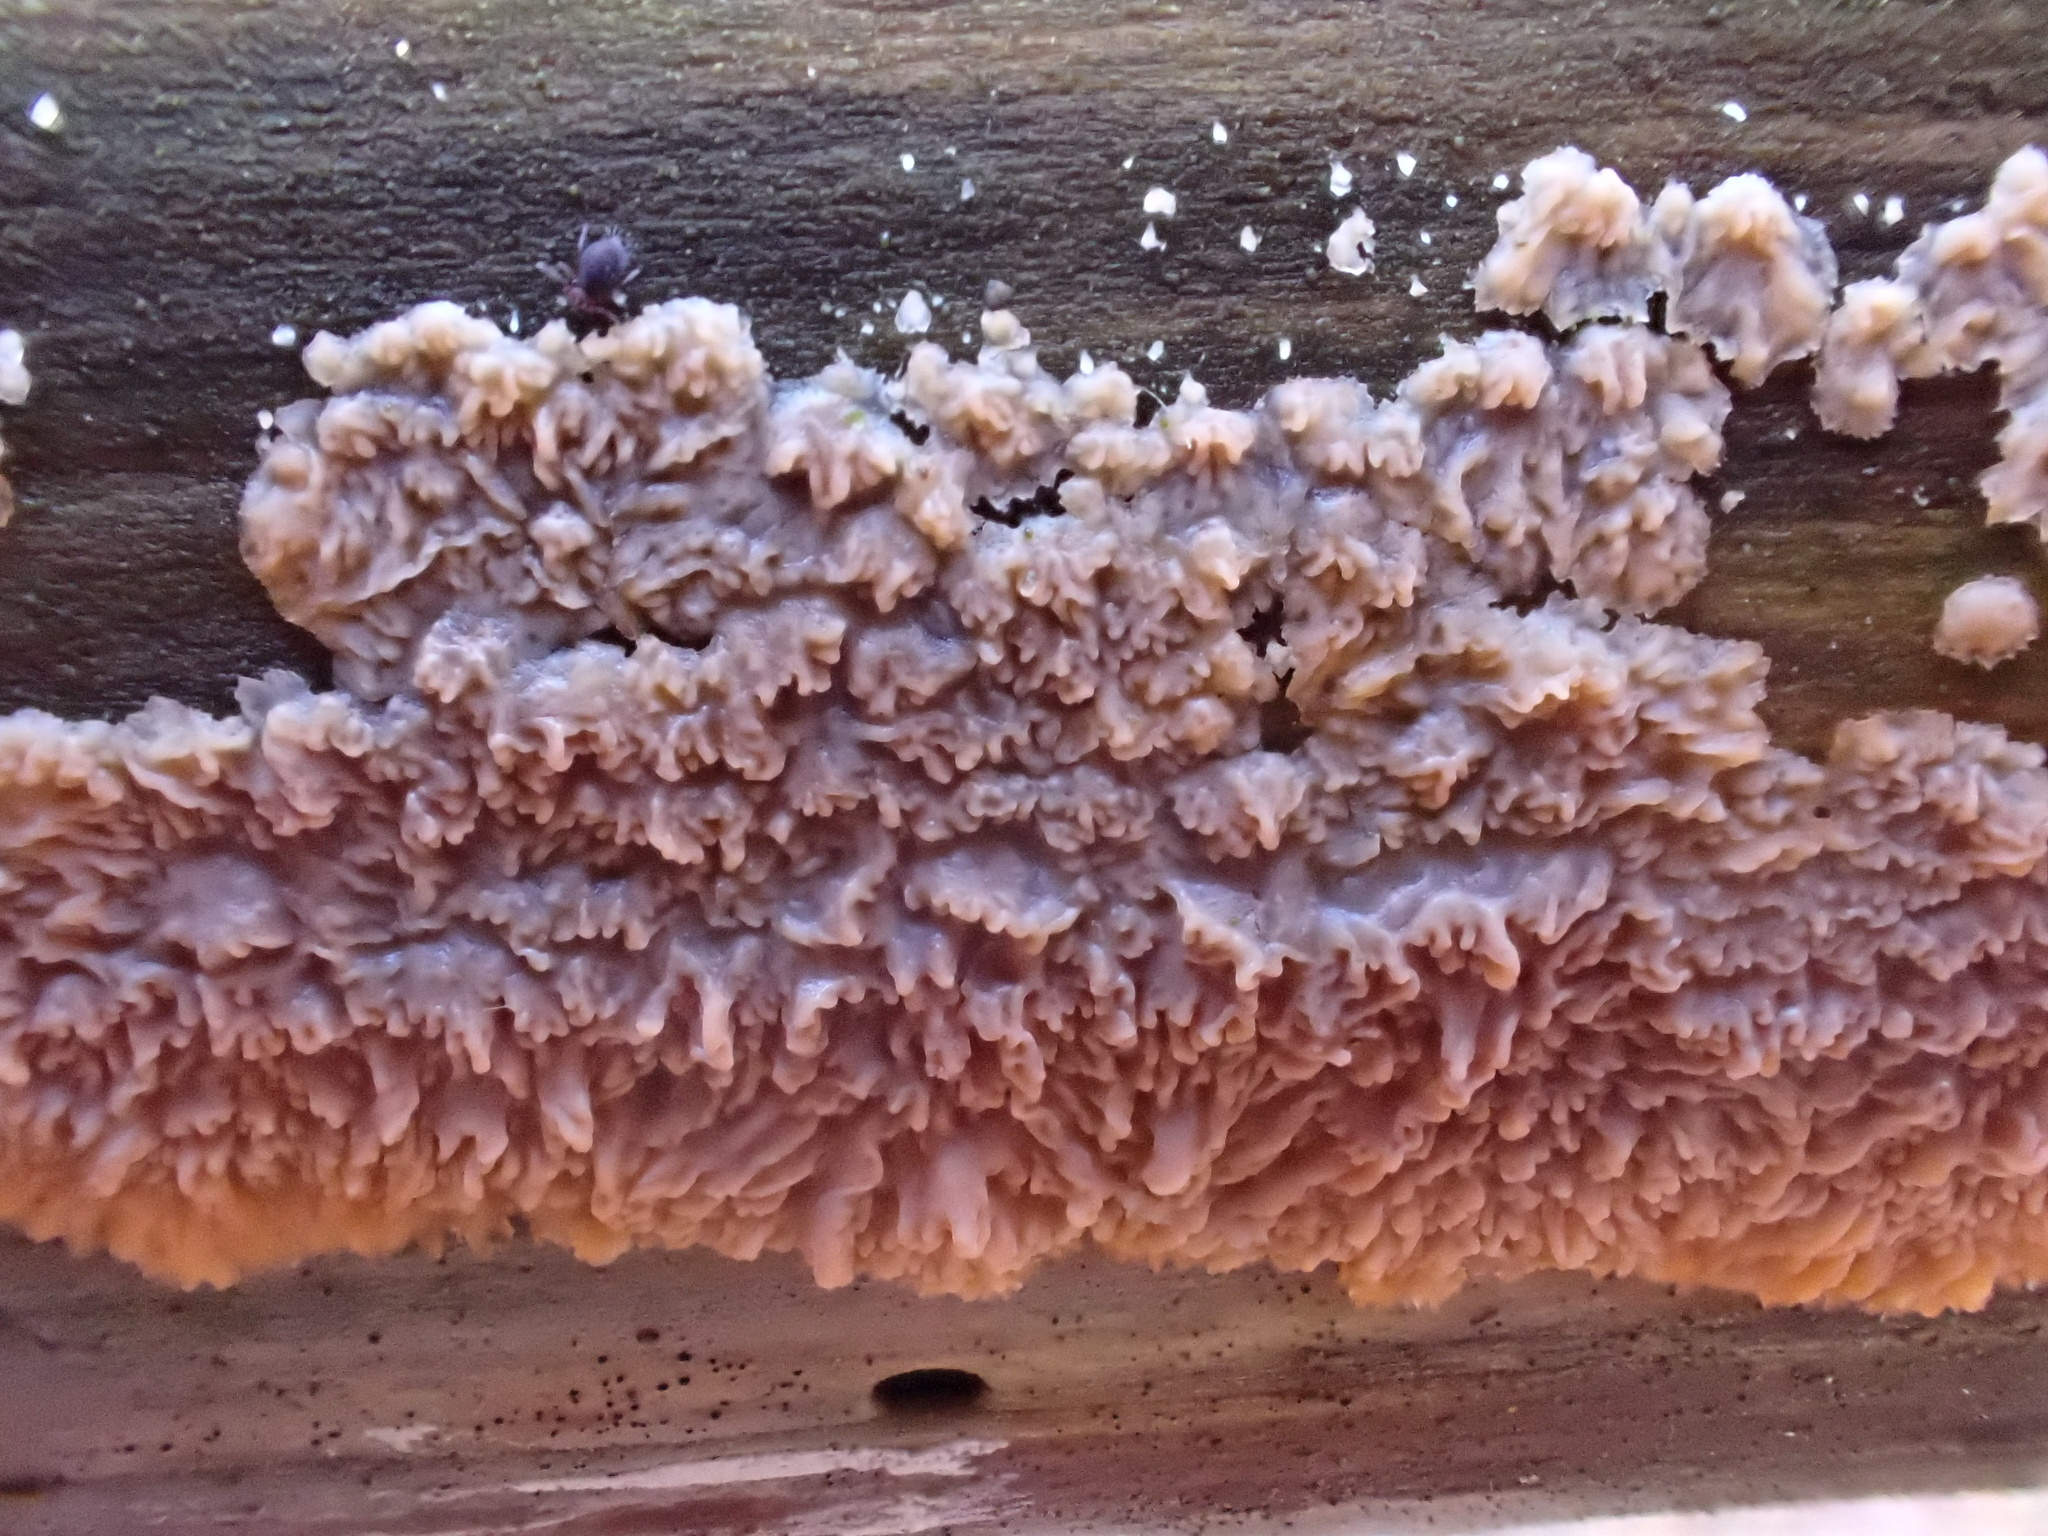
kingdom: Fungi
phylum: Basidiomycota
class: Agaricomycetes
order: Polyporales
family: Meruliaceae
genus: Phlebia
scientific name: Phlebia radiata
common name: Wrinkled crust
